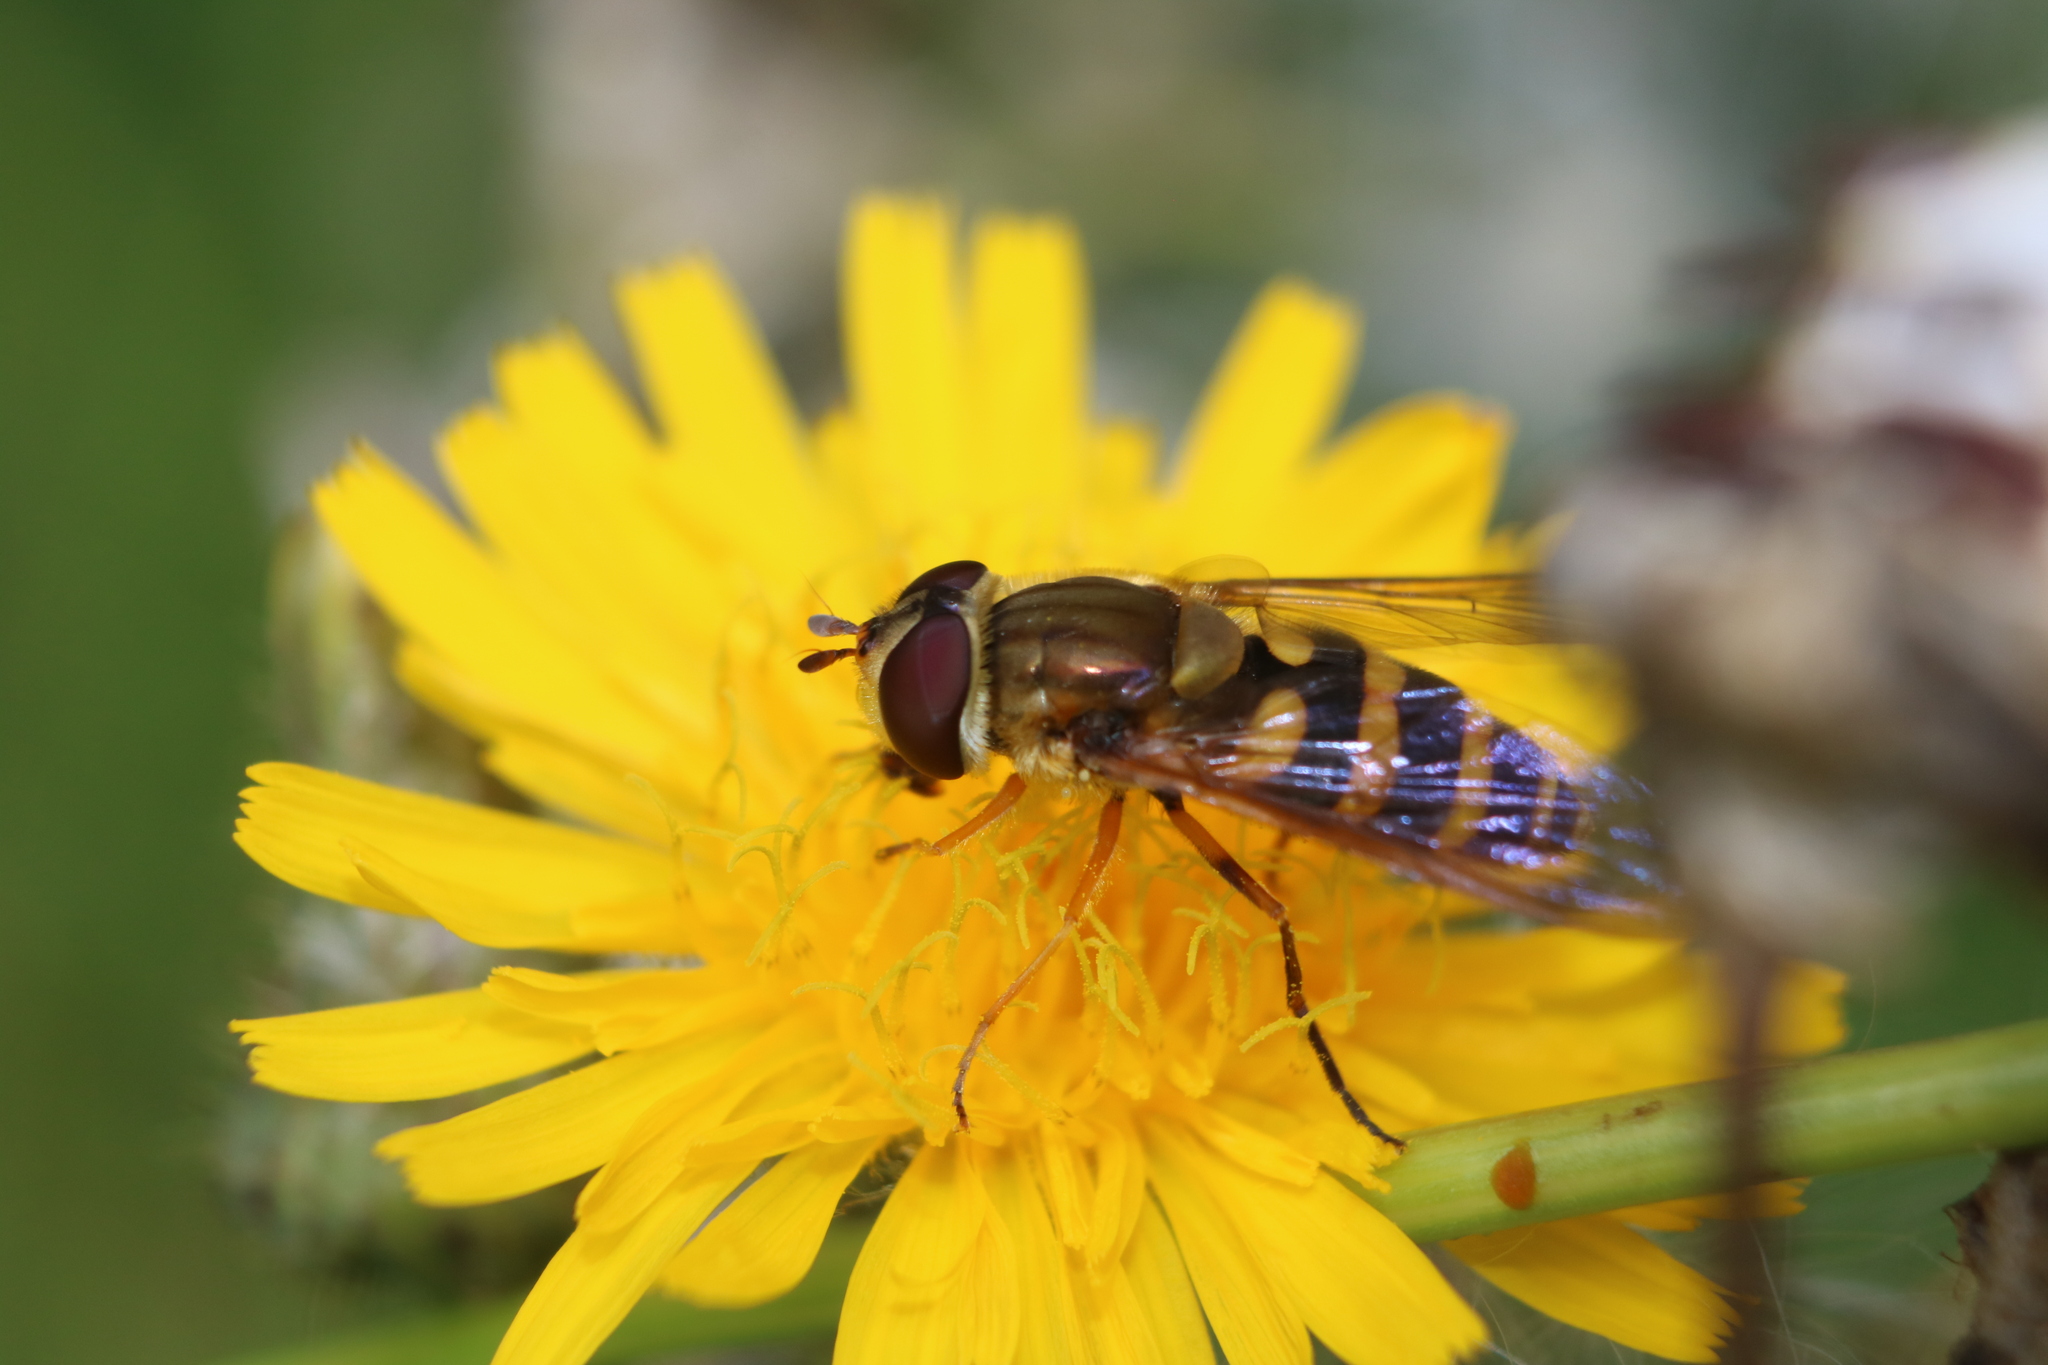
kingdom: Animalia
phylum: Arthropoda
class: Insecta
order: Diptera
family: Syrphidae
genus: Syrphus
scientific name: Syrphus rectus
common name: Yellow-legged flower fly
